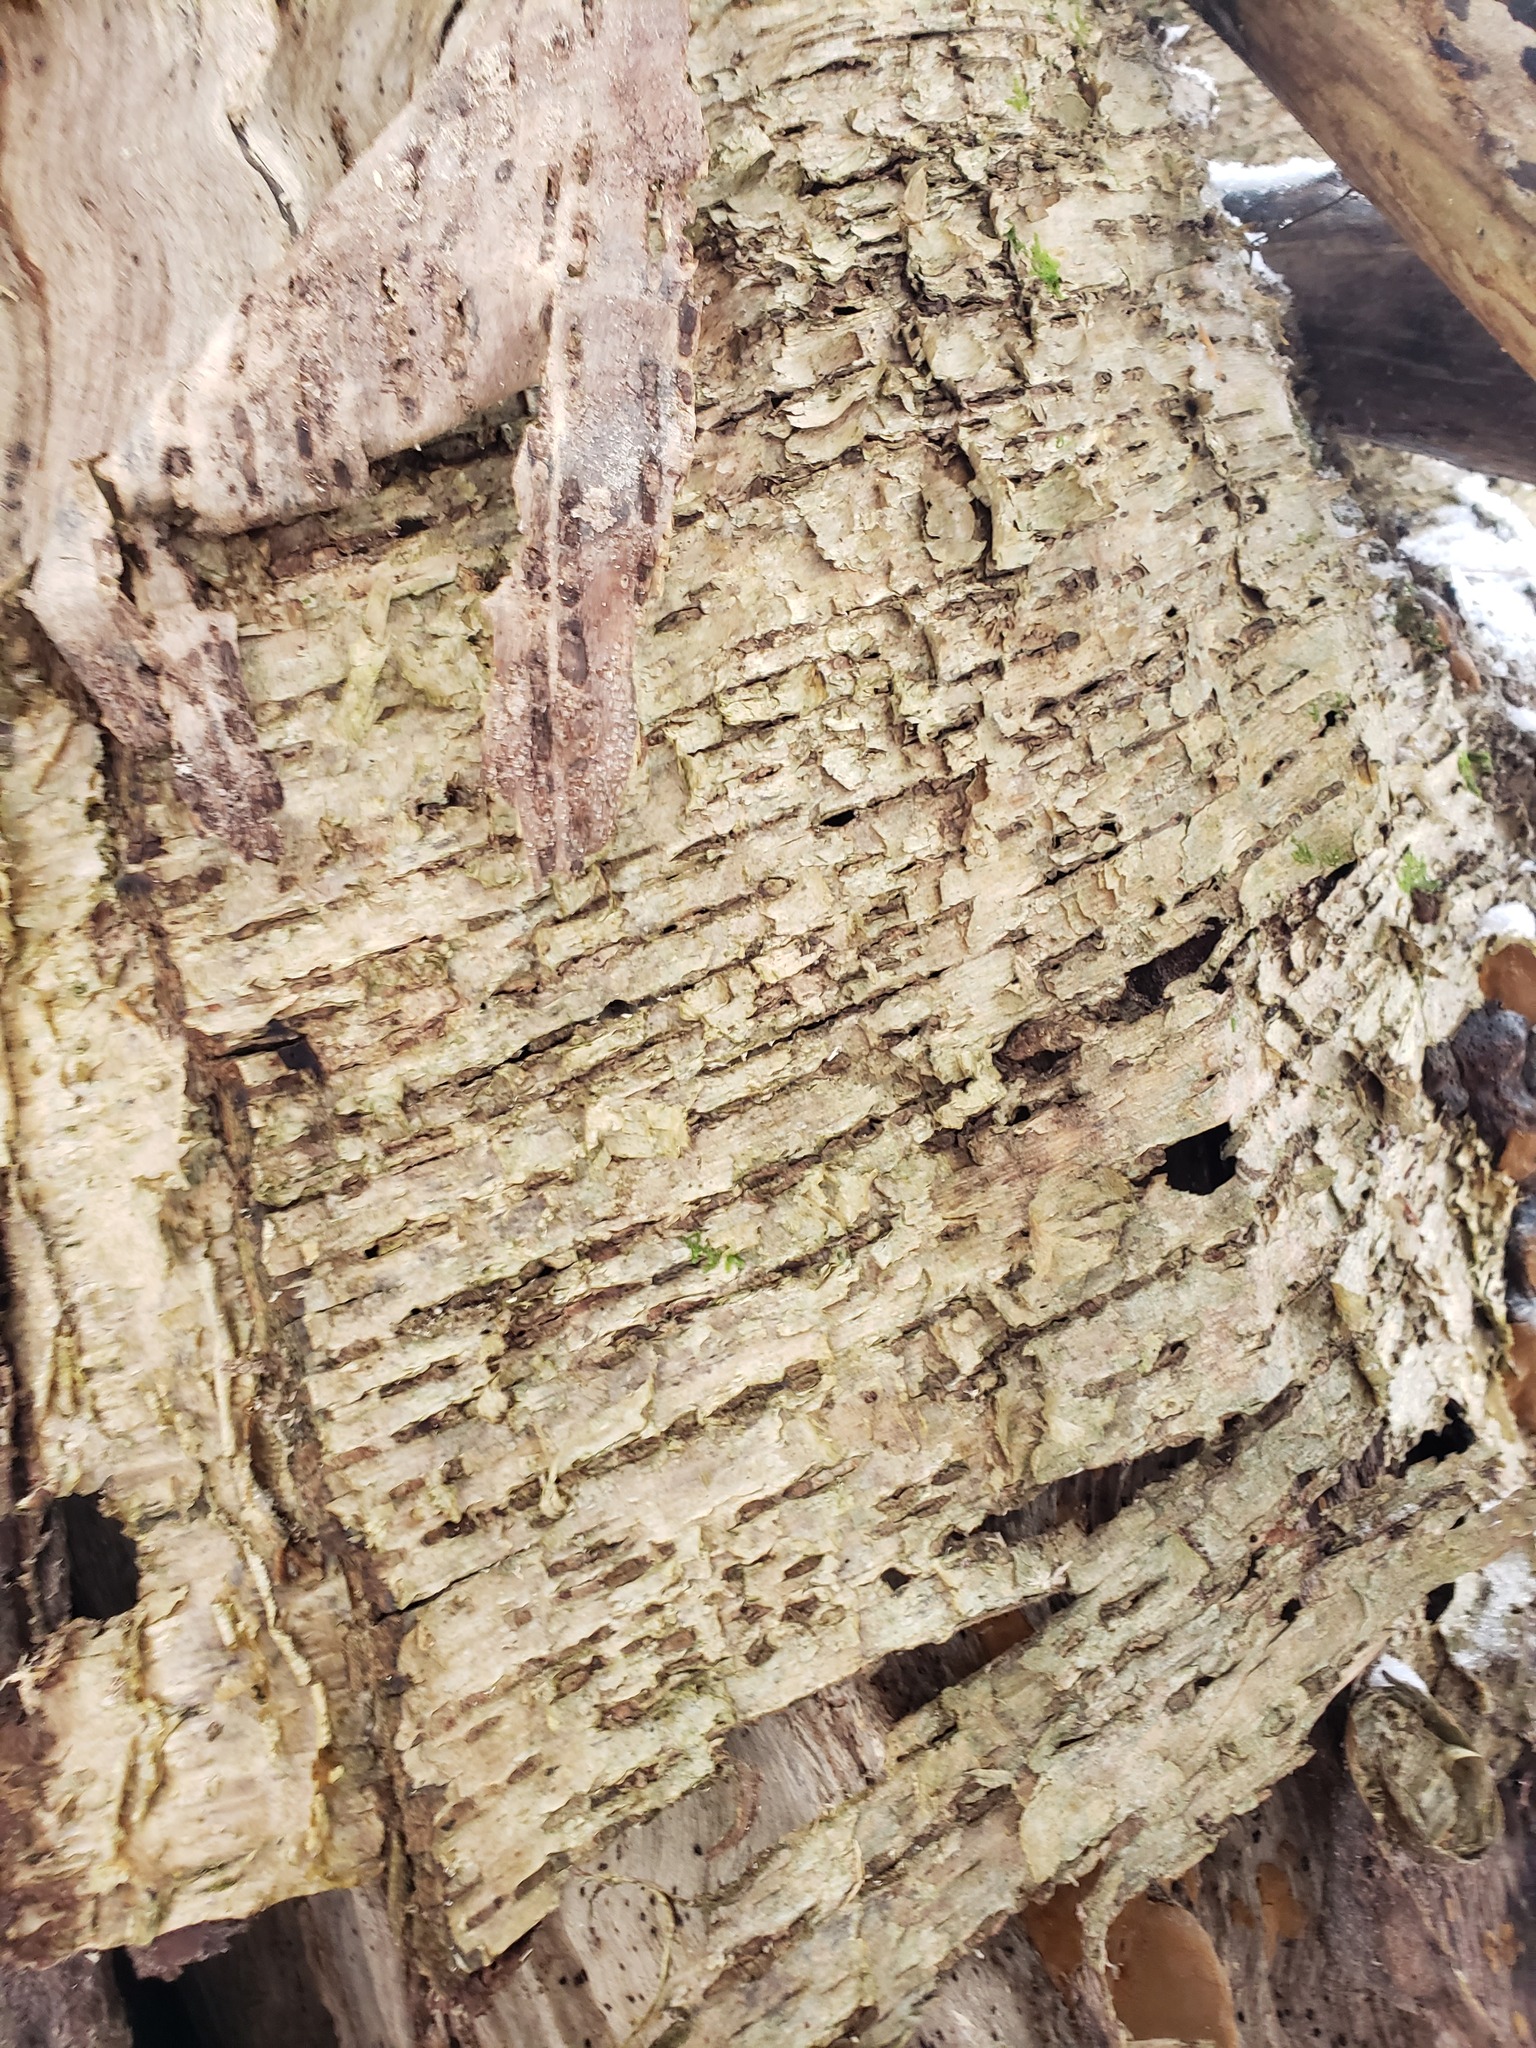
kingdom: Plantae
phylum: Tracheophyta
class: Magnoliopsida
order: Fagales
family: Betulaceae
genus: Betula
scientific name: Betula alleghaniensis
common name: Yellow birch
